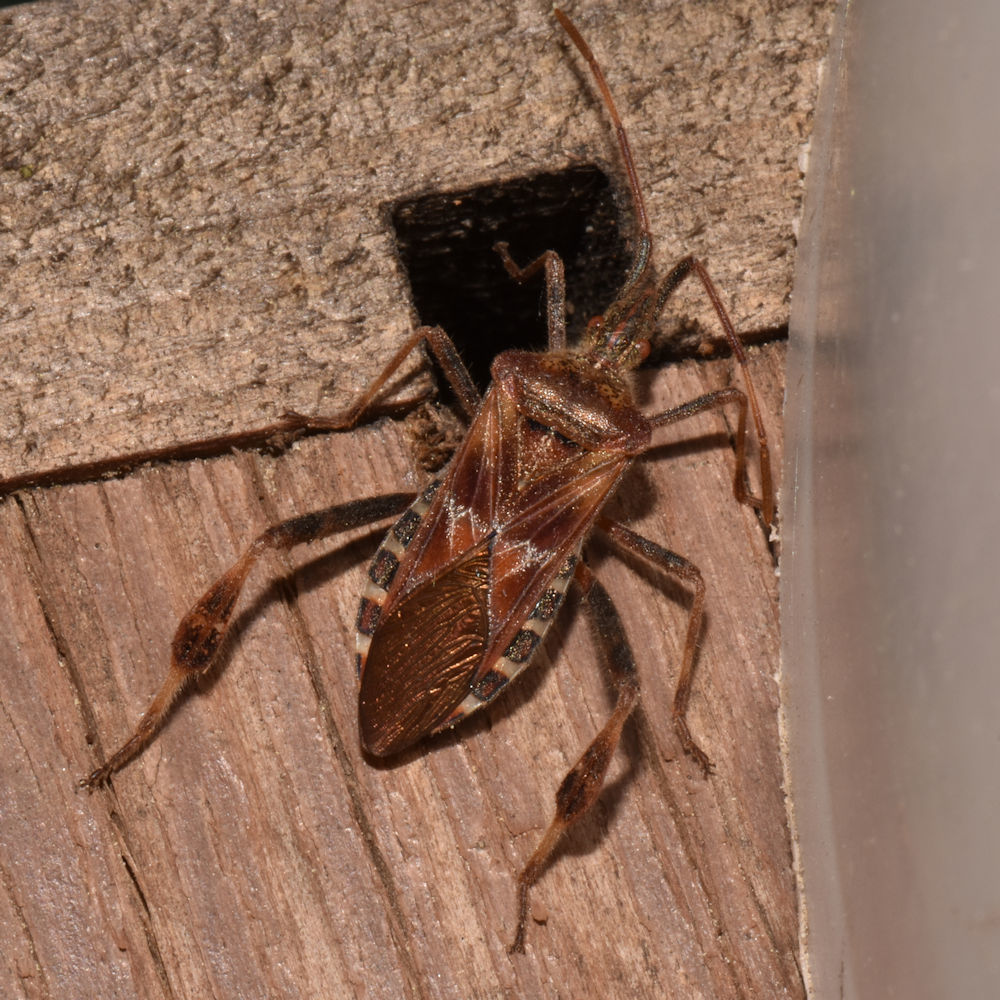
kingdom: Animalia
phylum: Arthropoda
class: Insecta
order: Hemiptera
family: Coreidae
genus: Leptoglossus
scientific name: Leptoglossus occidentalis
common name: Western conifer-seed bug
